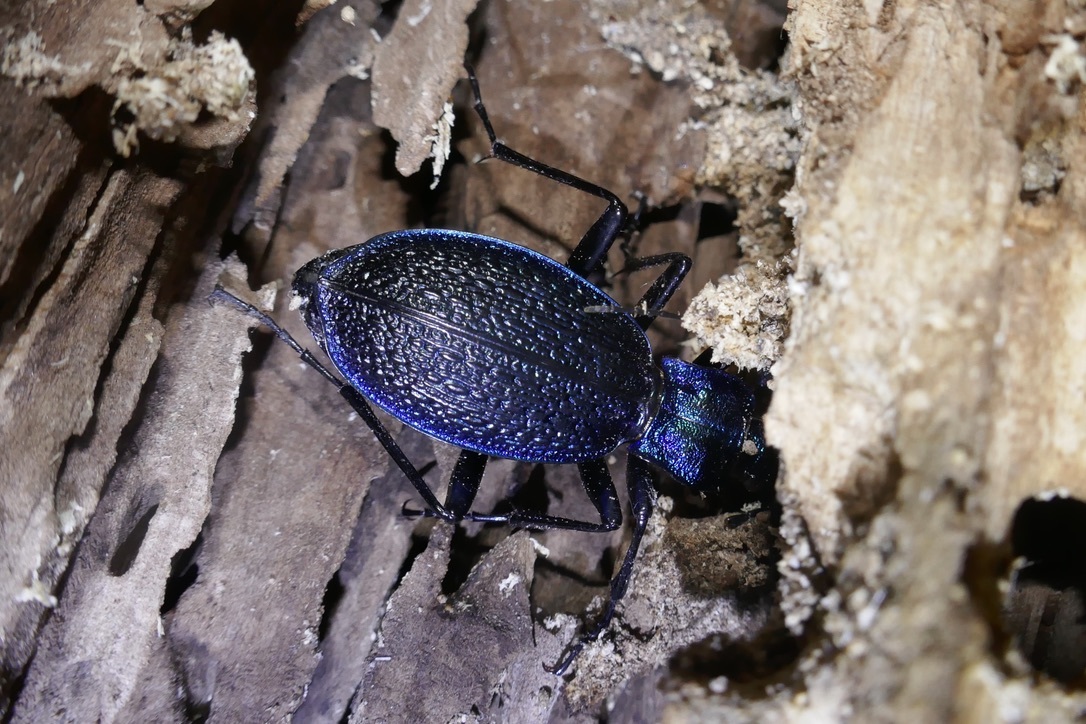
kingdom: Animalia
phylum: Arthropoda
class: Insecta
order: Coleoptera
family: Carabidae
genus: Carabus
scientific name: Carabus intricatus
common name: Blue ground beetle
